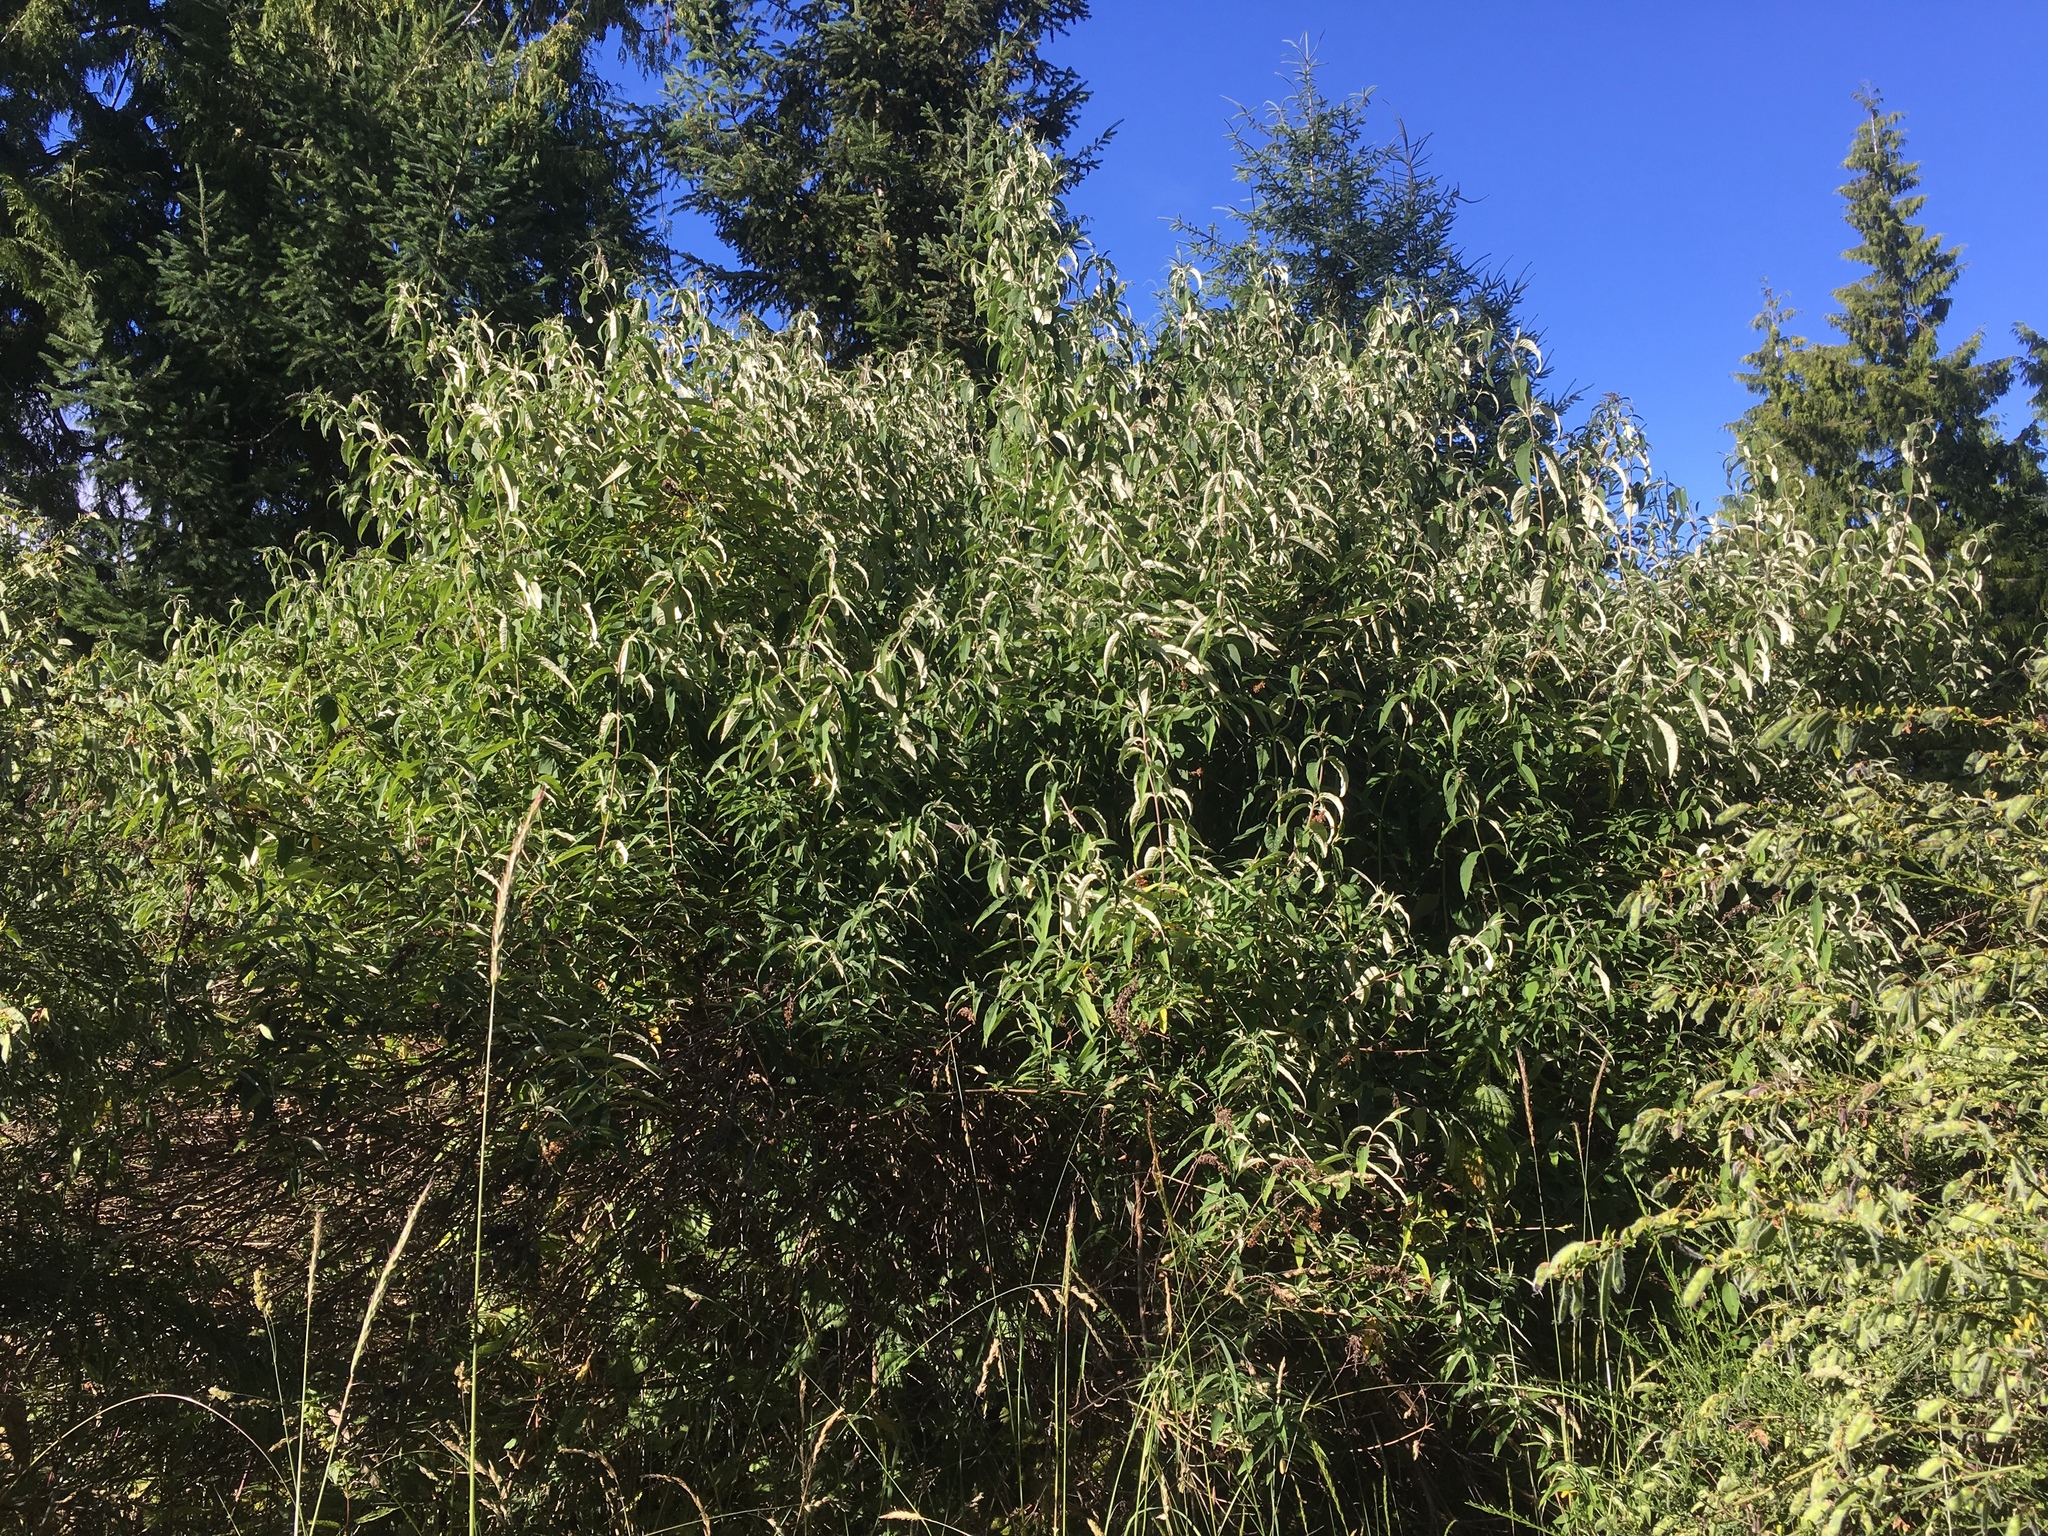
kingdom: Plantae
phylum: Tracheophyta
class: Magnoliopsida
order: Lamiales
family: Scrophulariaceae
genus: Buddleja
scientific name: Buddleja davidii
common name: Butterfly-bush
